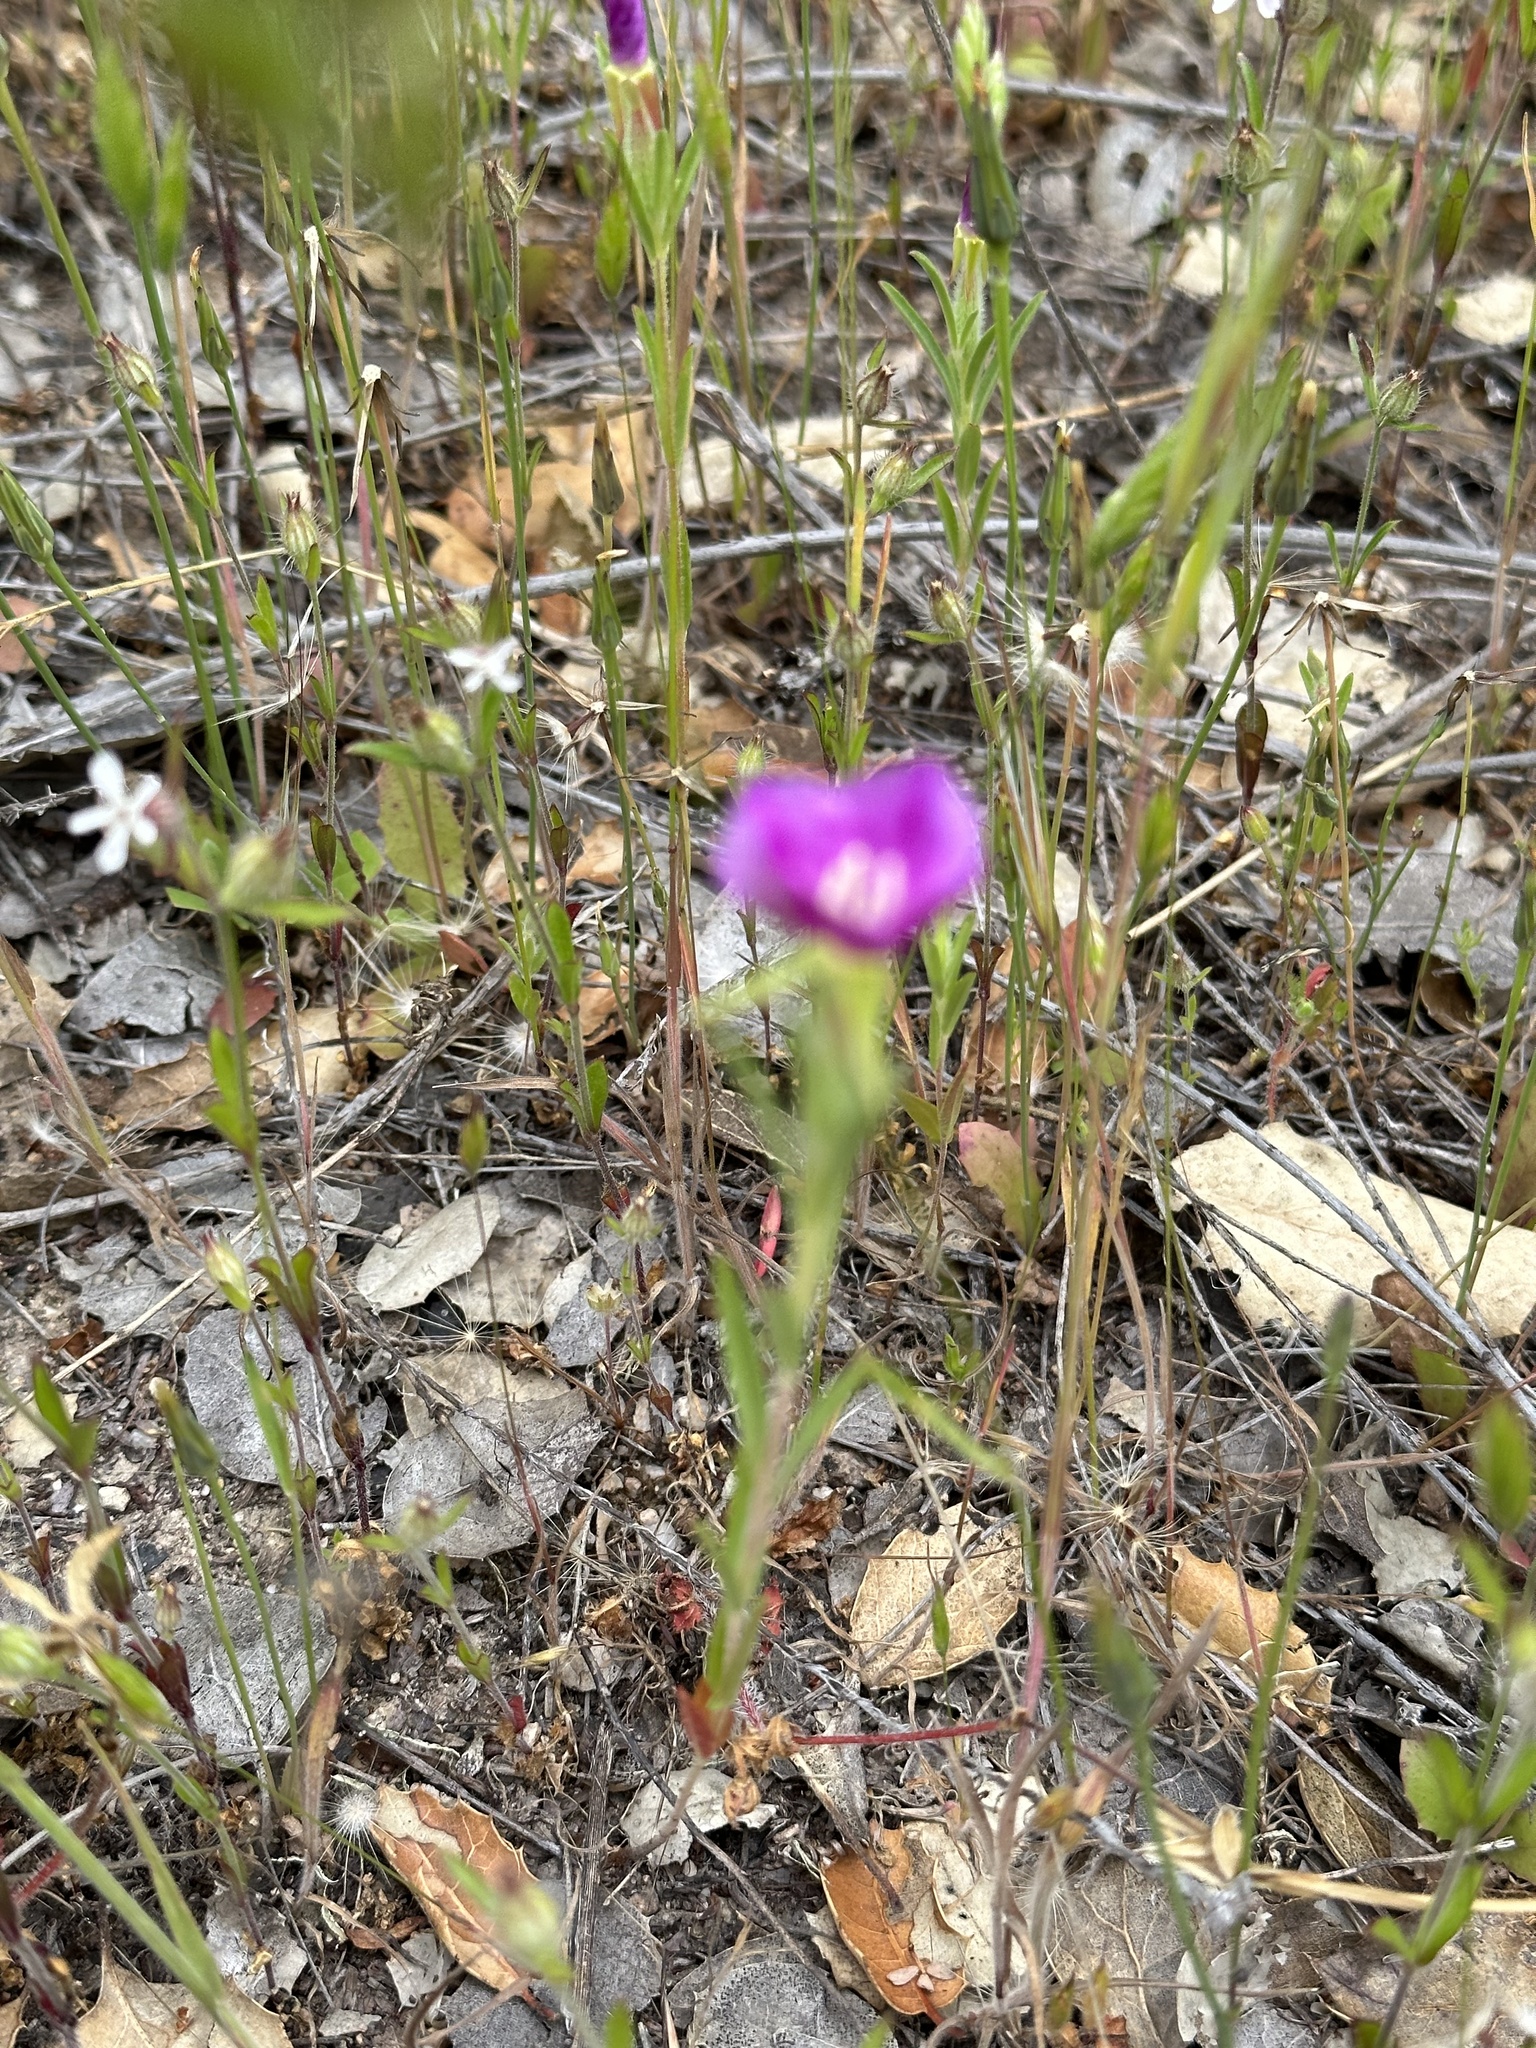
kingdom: Plantae
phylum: Tracheophyta
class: Magnoliopsida
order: Myrtales
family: Onagraceae
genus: Clarkia
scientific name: Clarkia purpurea
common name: Purple clarkia
